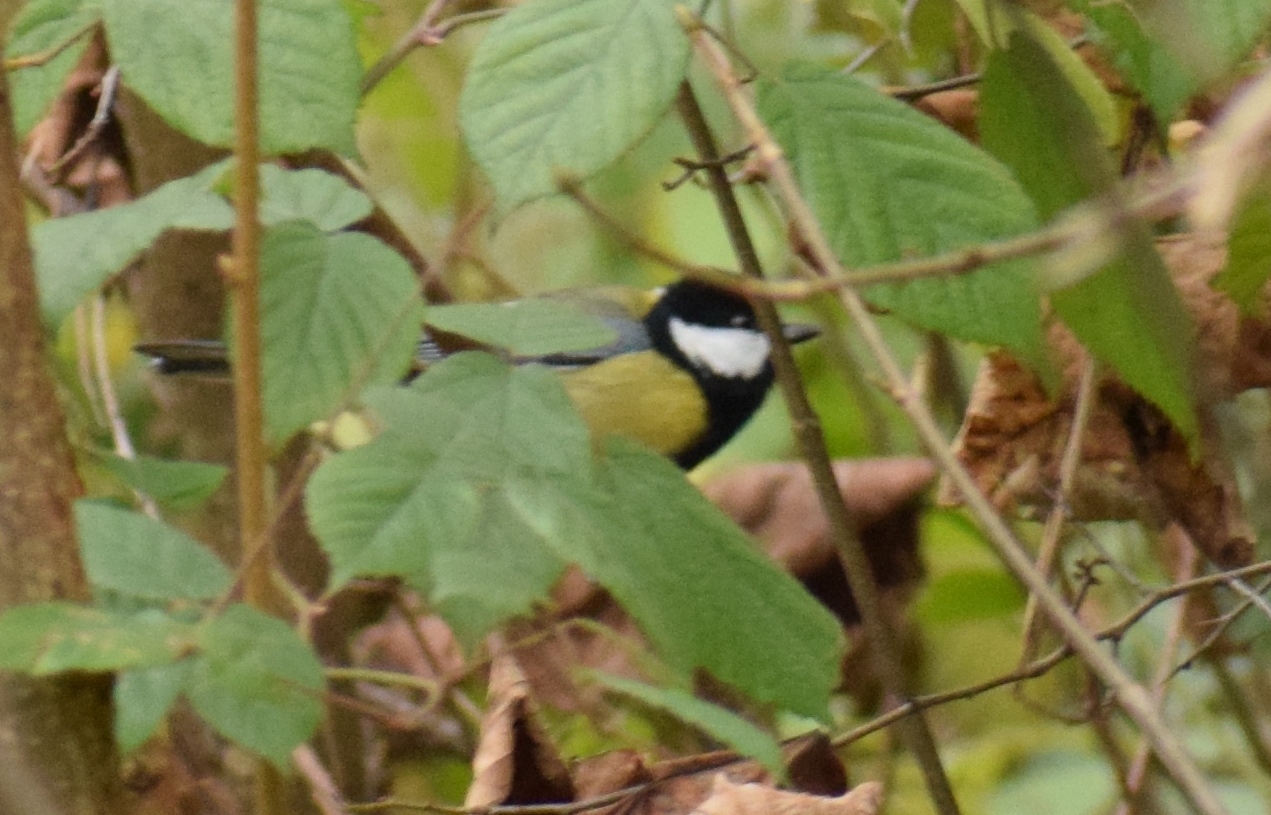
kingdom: Animalia
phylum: Chordata
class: Aves
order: Passeriformes
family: Paridae
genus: Parus
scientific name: Parus major
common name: Great tit
